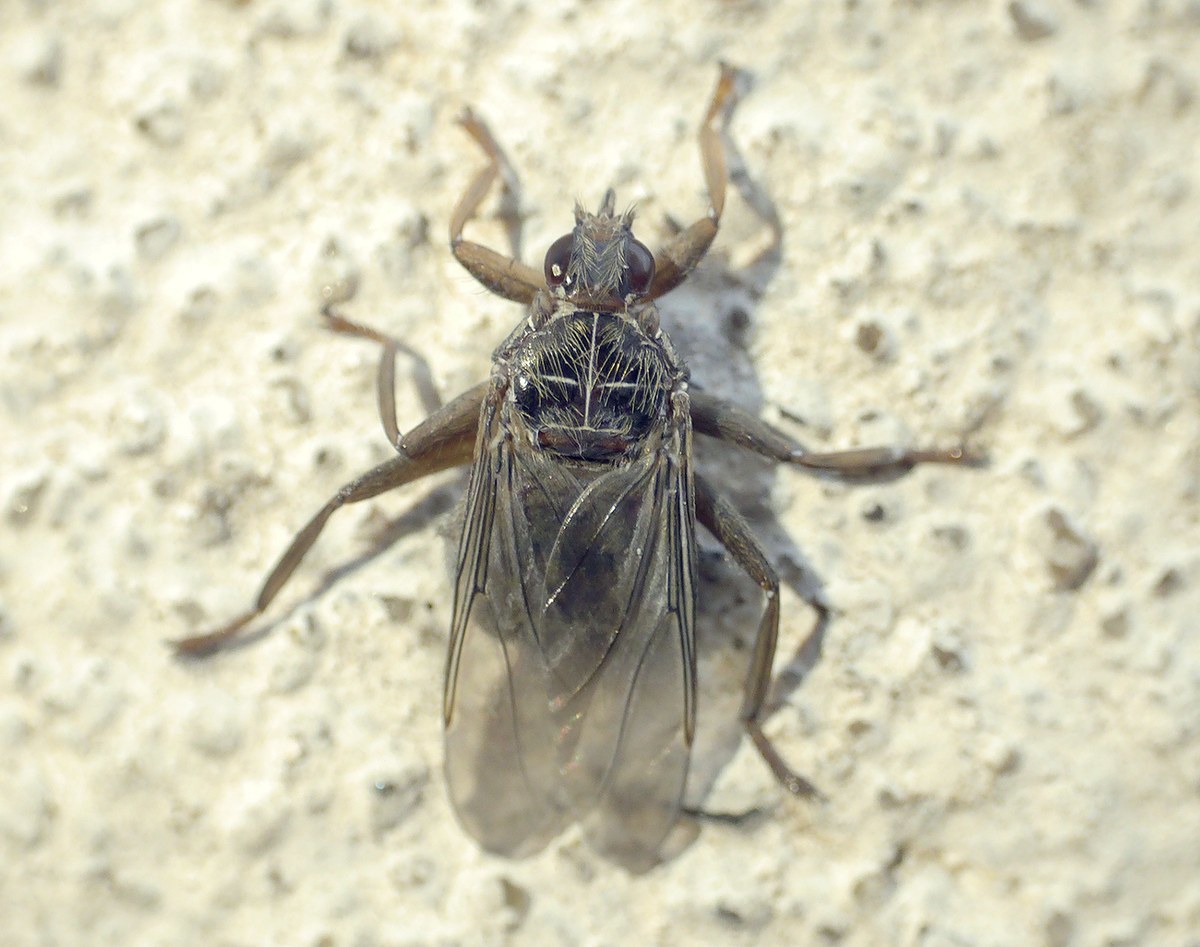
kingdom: Animalia
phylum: Arthropoda
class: Insecta
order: Diptera
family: Hippoboscidae
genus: Pseudolynchia
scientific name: Pseudolynchia canariensis
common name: Louse fly
